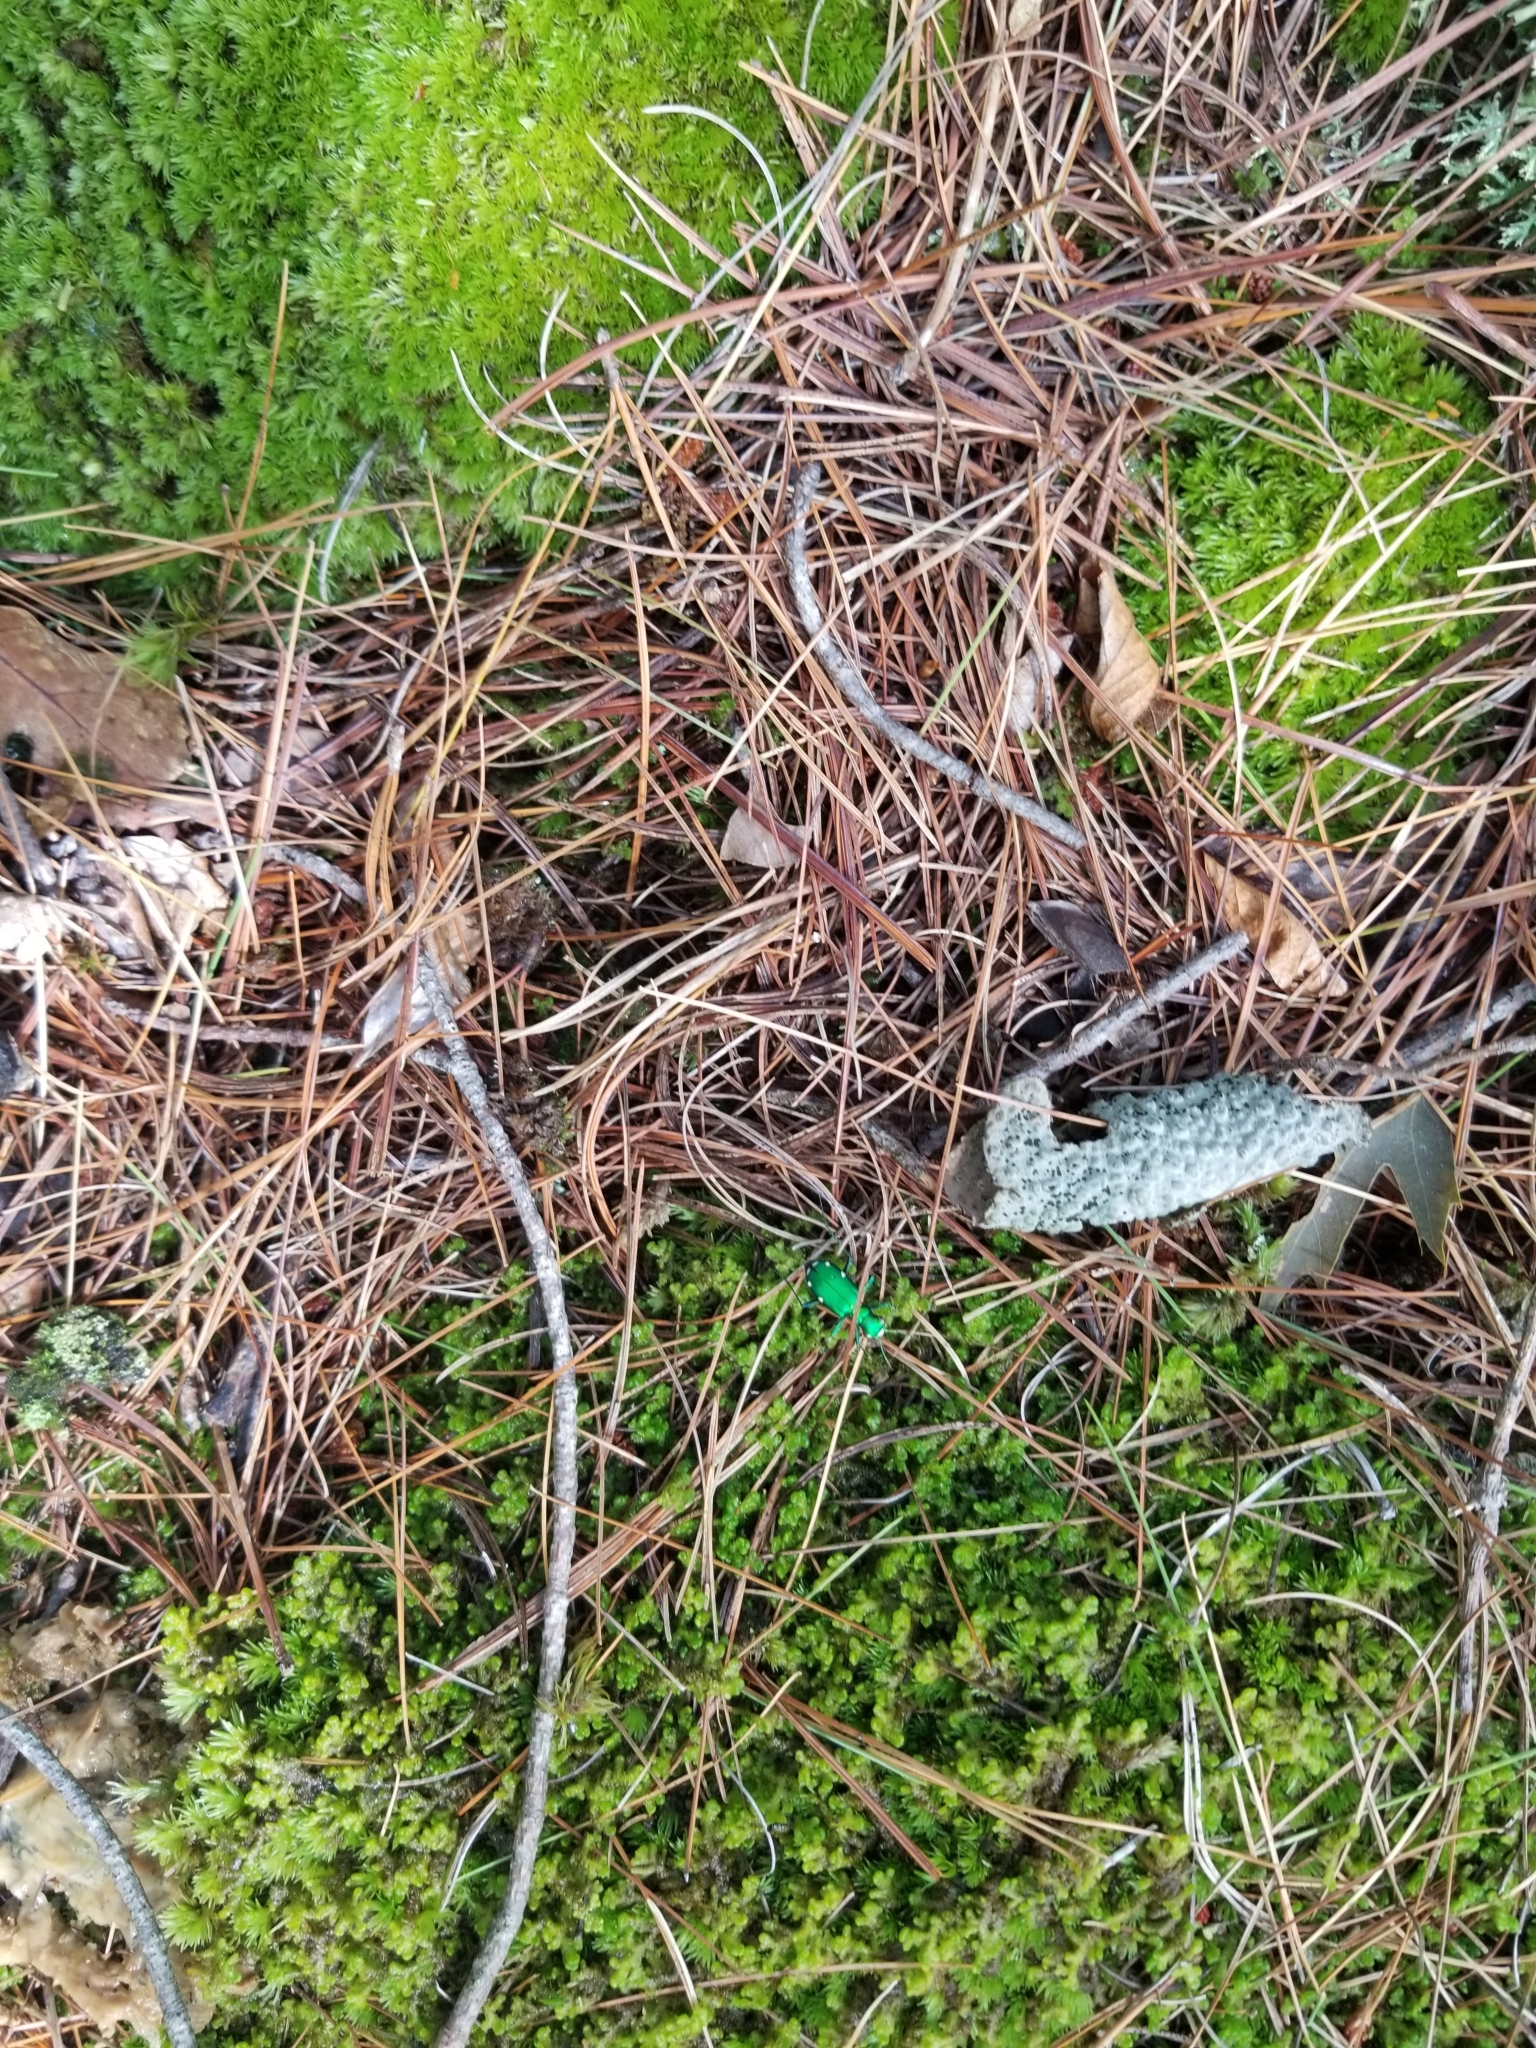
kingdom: Animalia
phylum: Arthropoda
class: Insecta
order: Coleoptera
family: Carabidae
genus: Cicindela
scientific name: Cicindela sexguttata
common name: Six-spotted tiger beetle
